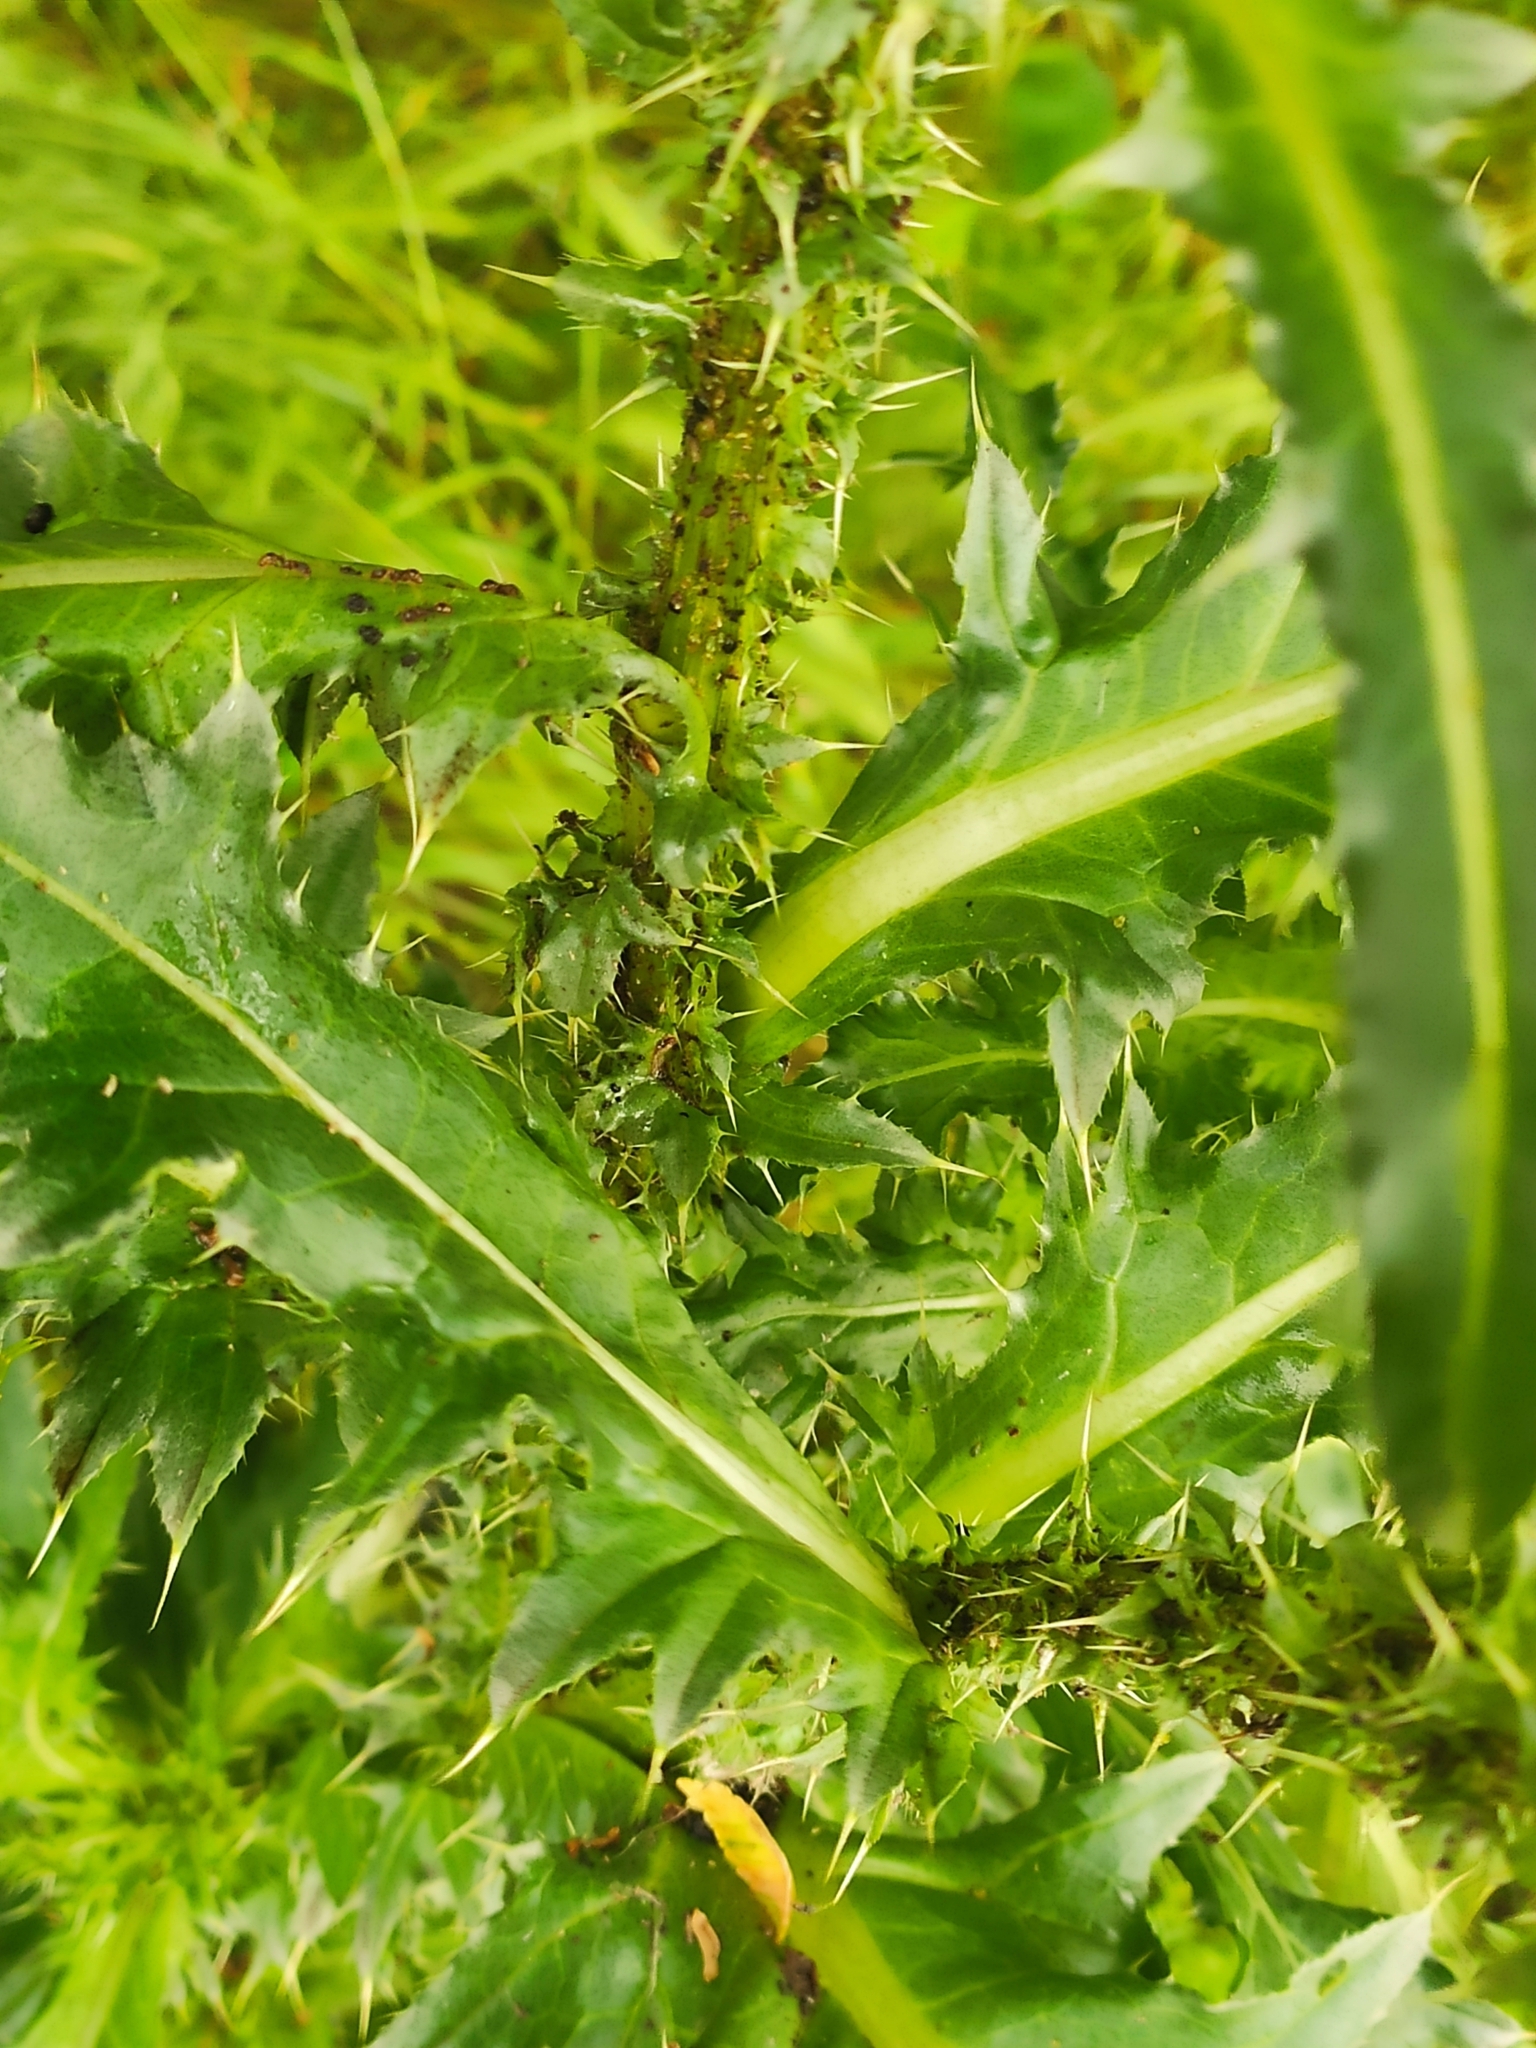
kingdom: Plantae
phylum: Tracheophyta
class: Magnoliopsida
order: Asterales
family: Asteraceae
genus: Carduus
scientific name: Carduus nutans
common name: Musk thistle
